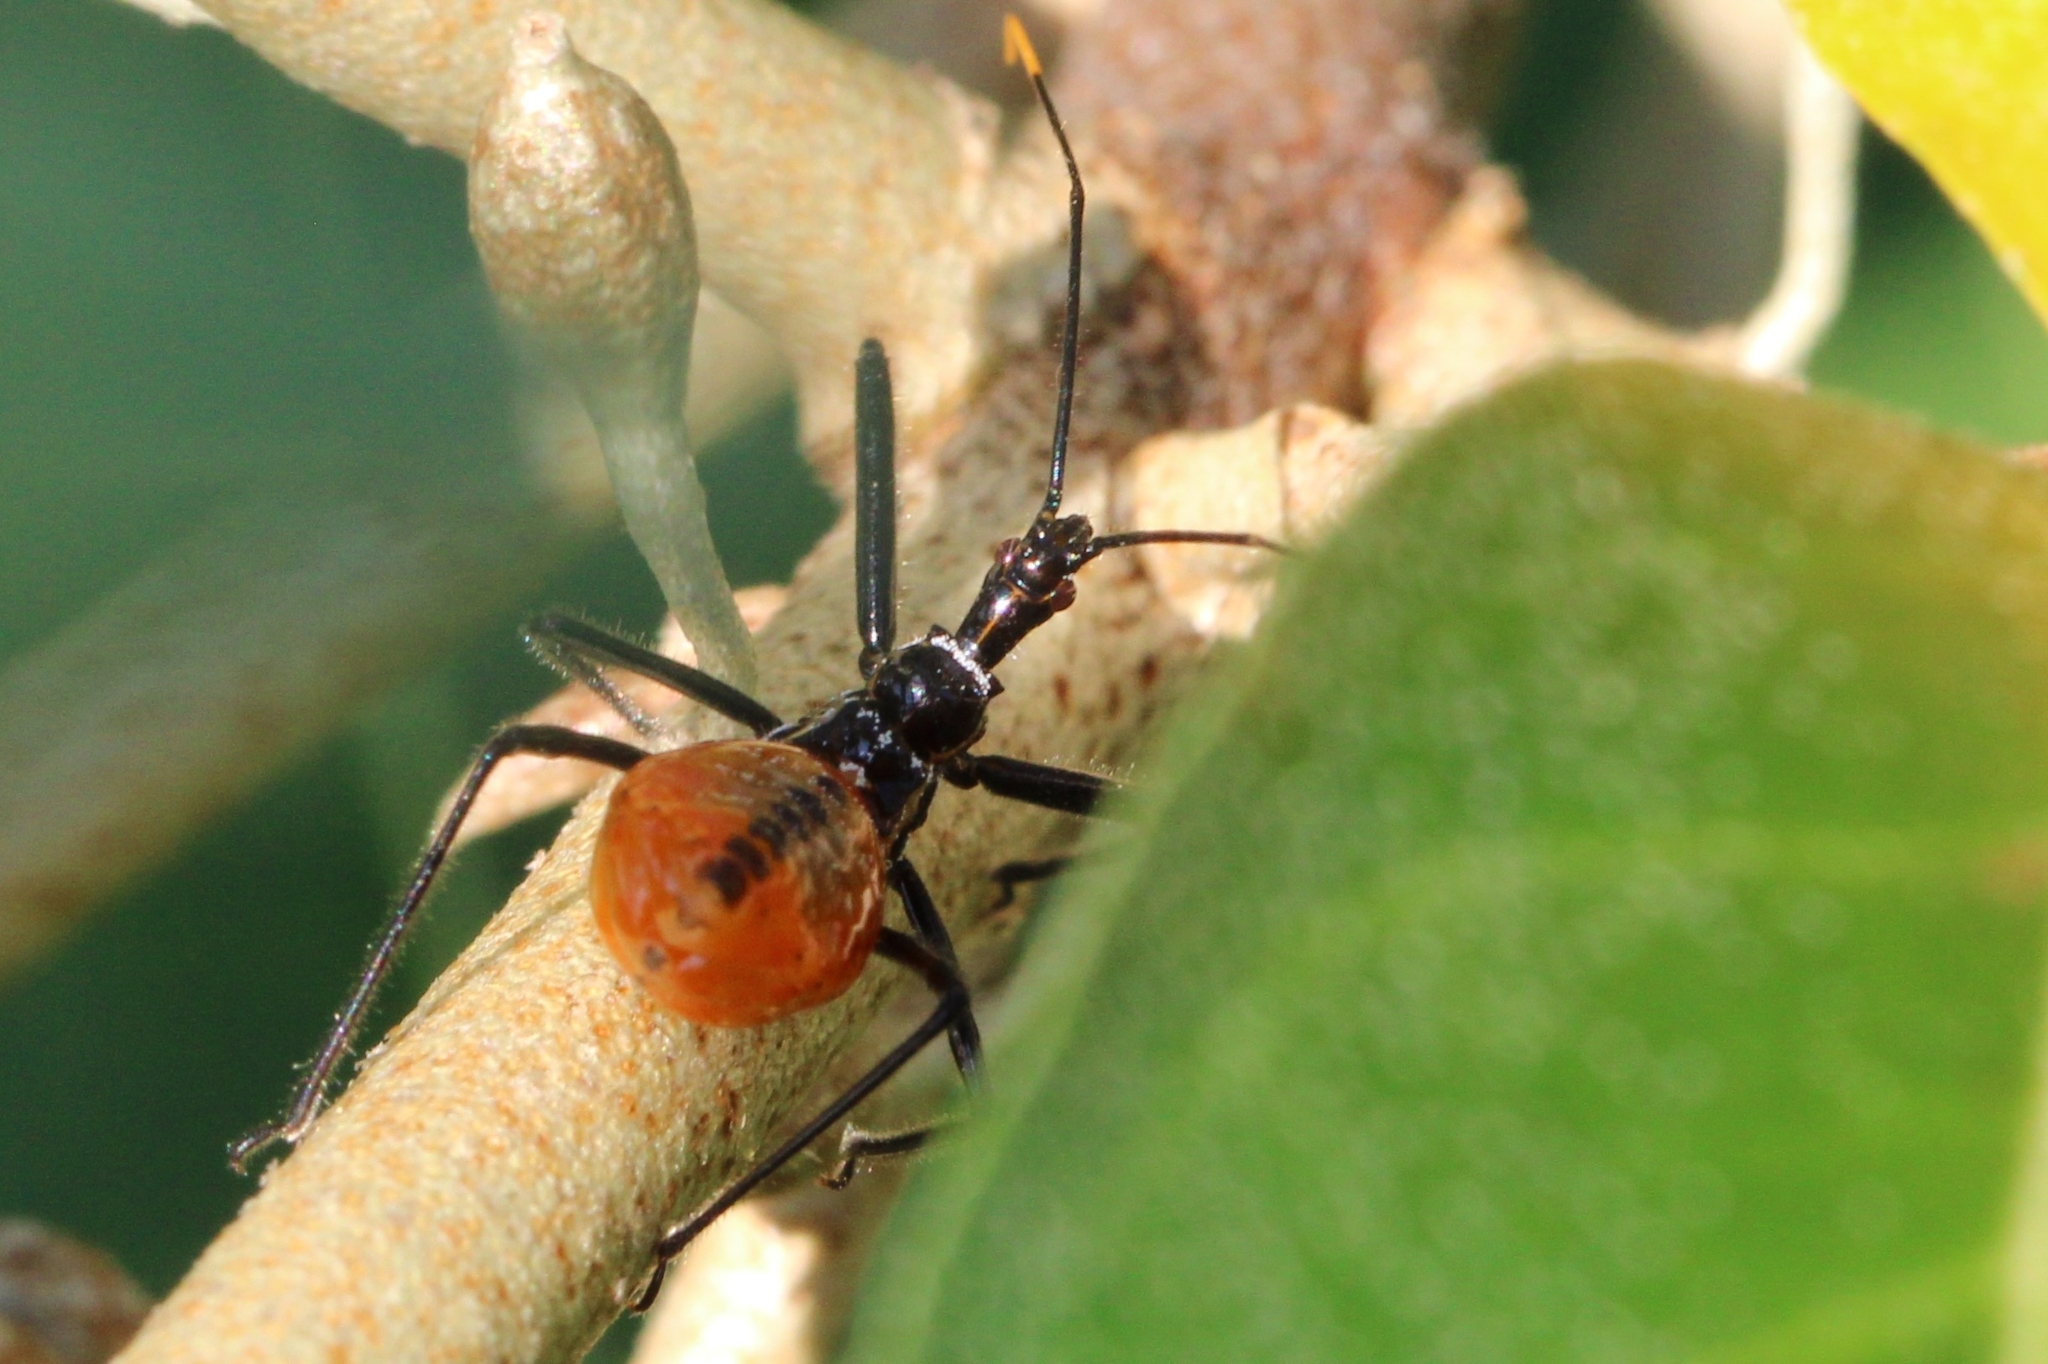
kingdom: Animalia
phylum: Arthropoda
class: Insecta
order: Hemiptera
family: Reduviidae
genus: Arilus
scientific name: Arilus cristatus
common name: North american wheel bug
